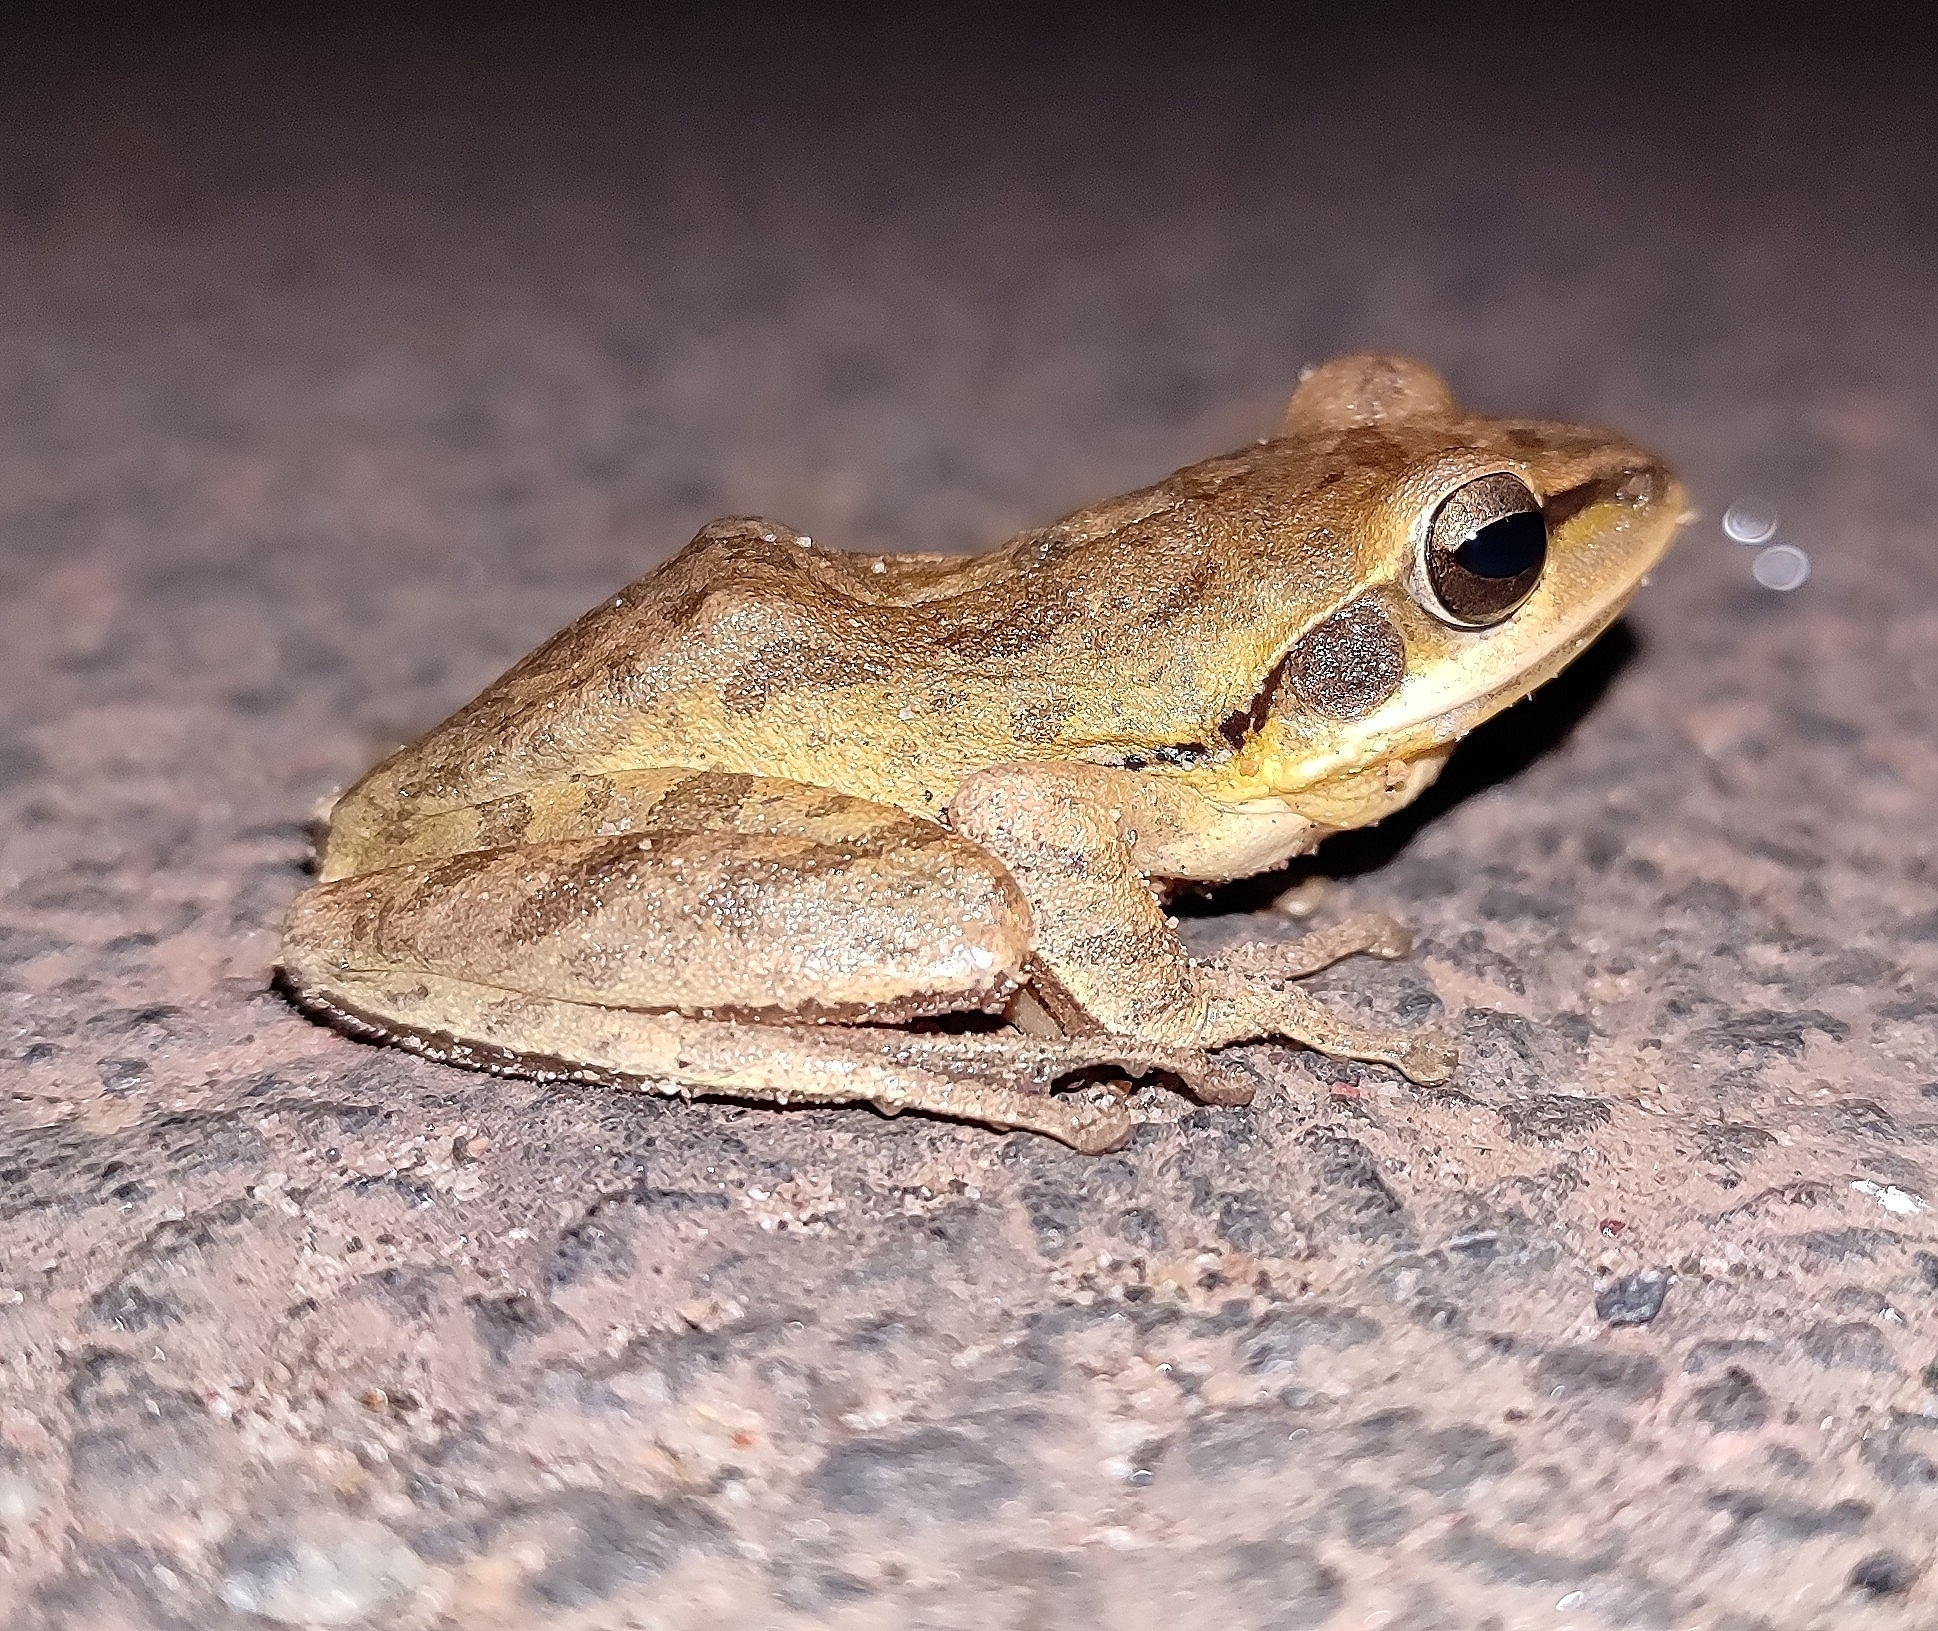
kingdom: Animalia
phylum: Chordata
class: Amphibia
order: Anura
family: Rhacophoridae
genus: Polypedates
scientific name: Polypedates maculatus
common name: Himalayan tree frog
